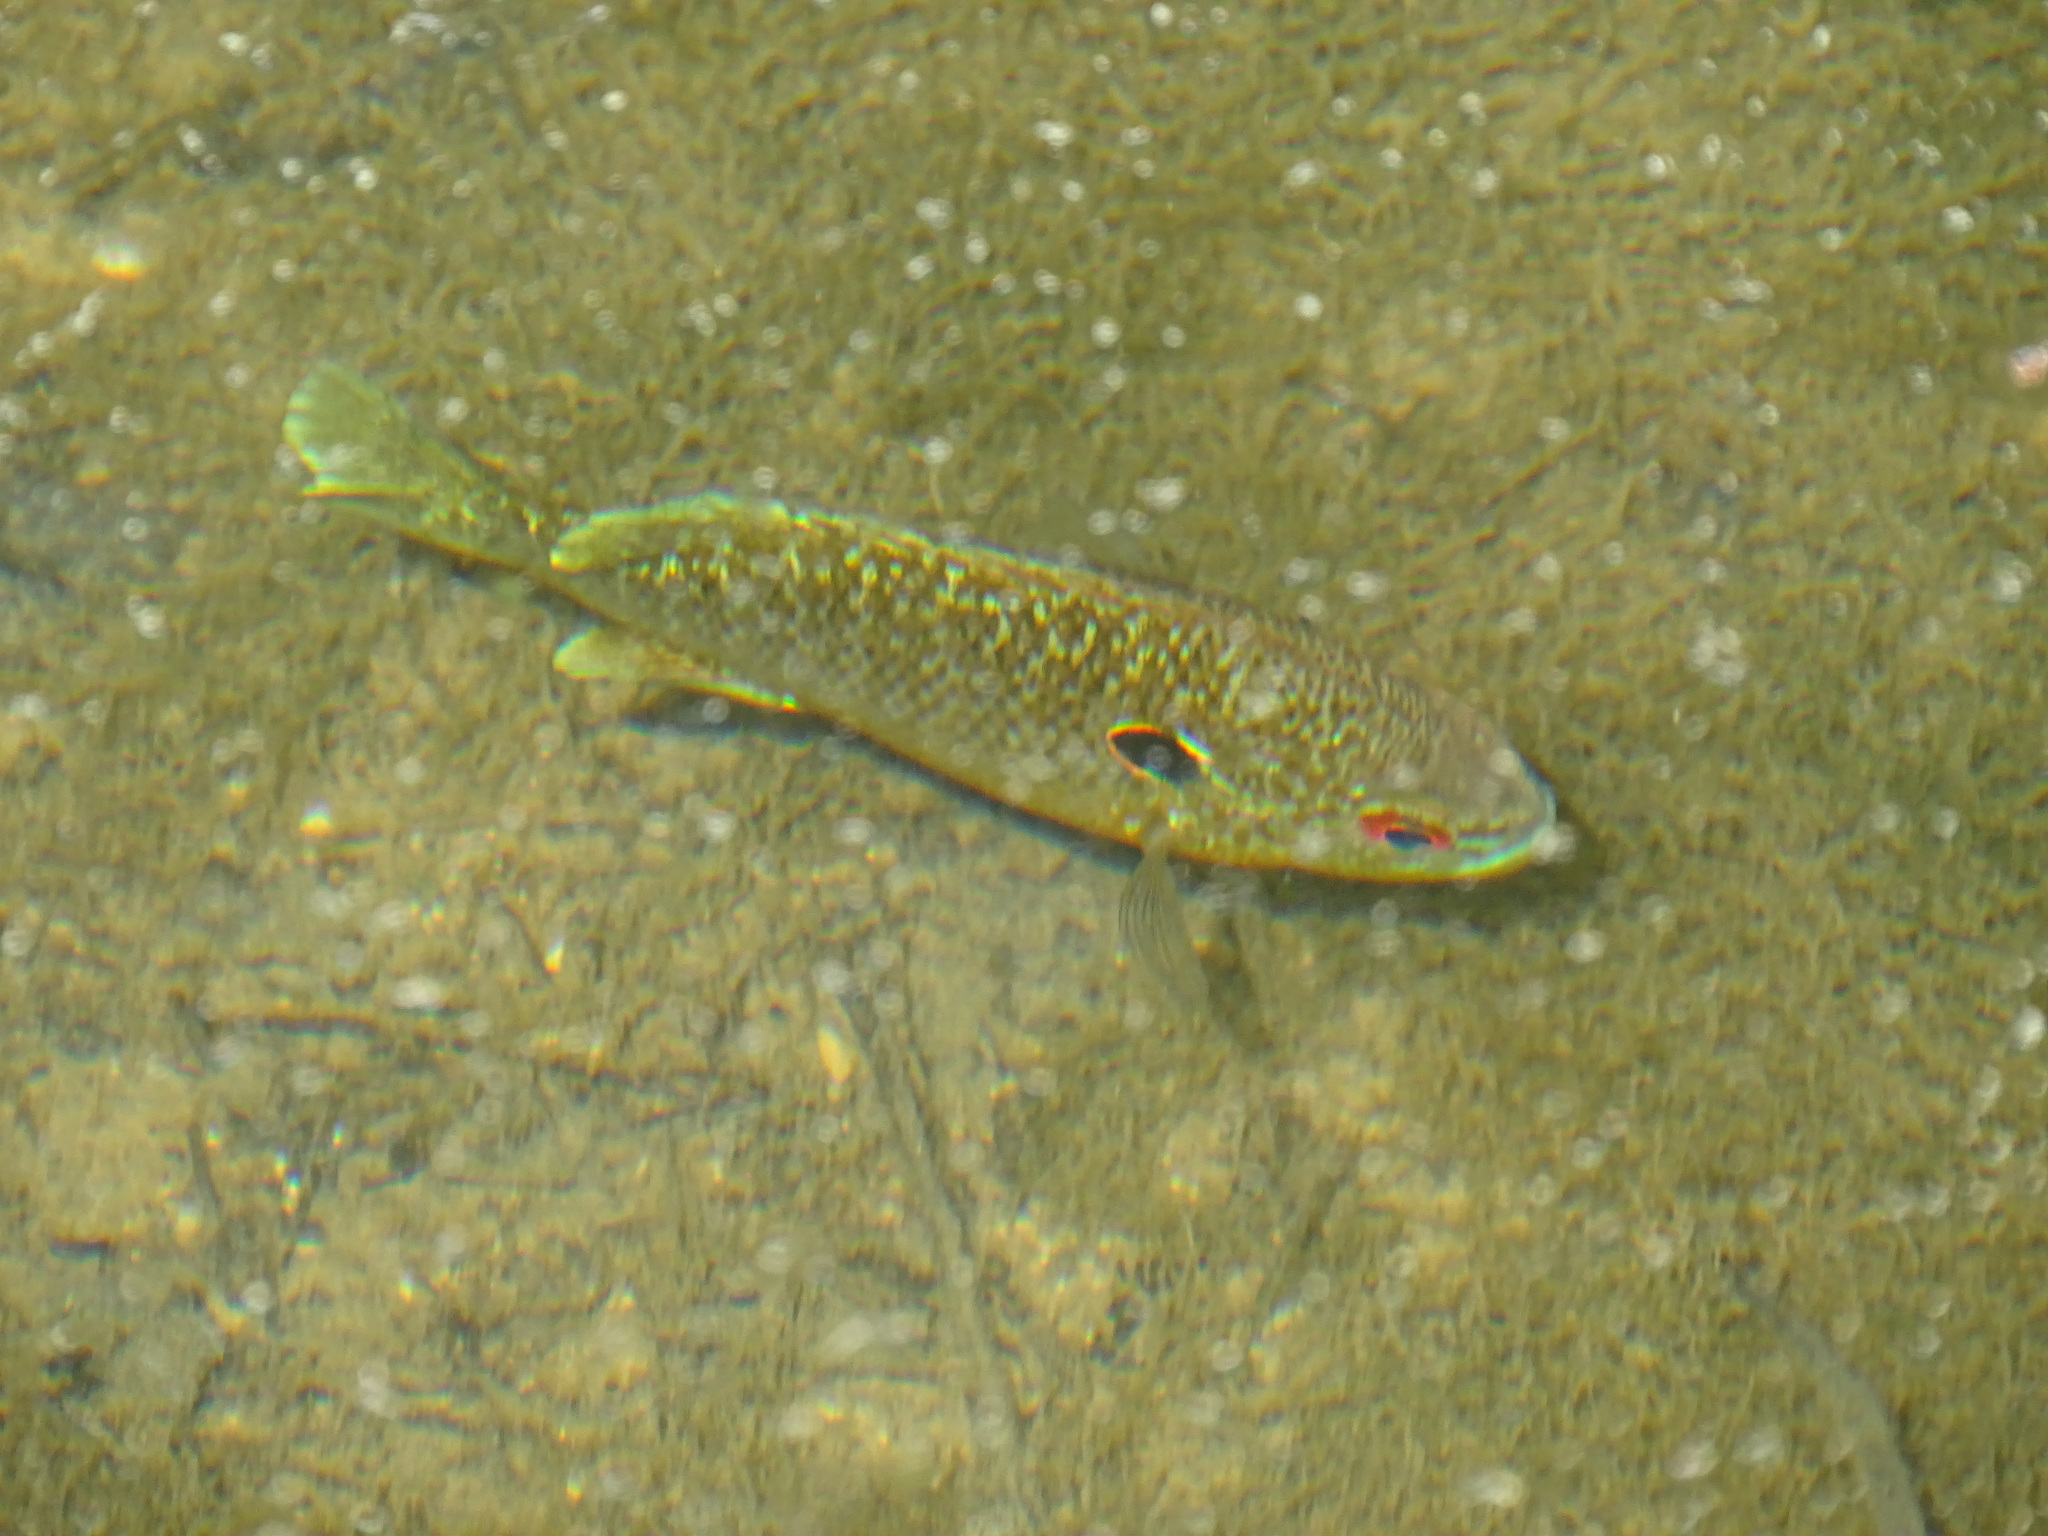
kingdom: Animalia
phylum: Chordata
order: Perciformes
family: Centrarchidae
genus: Lepomis
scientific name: Lepomis peltastes
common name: Northern sunfish
